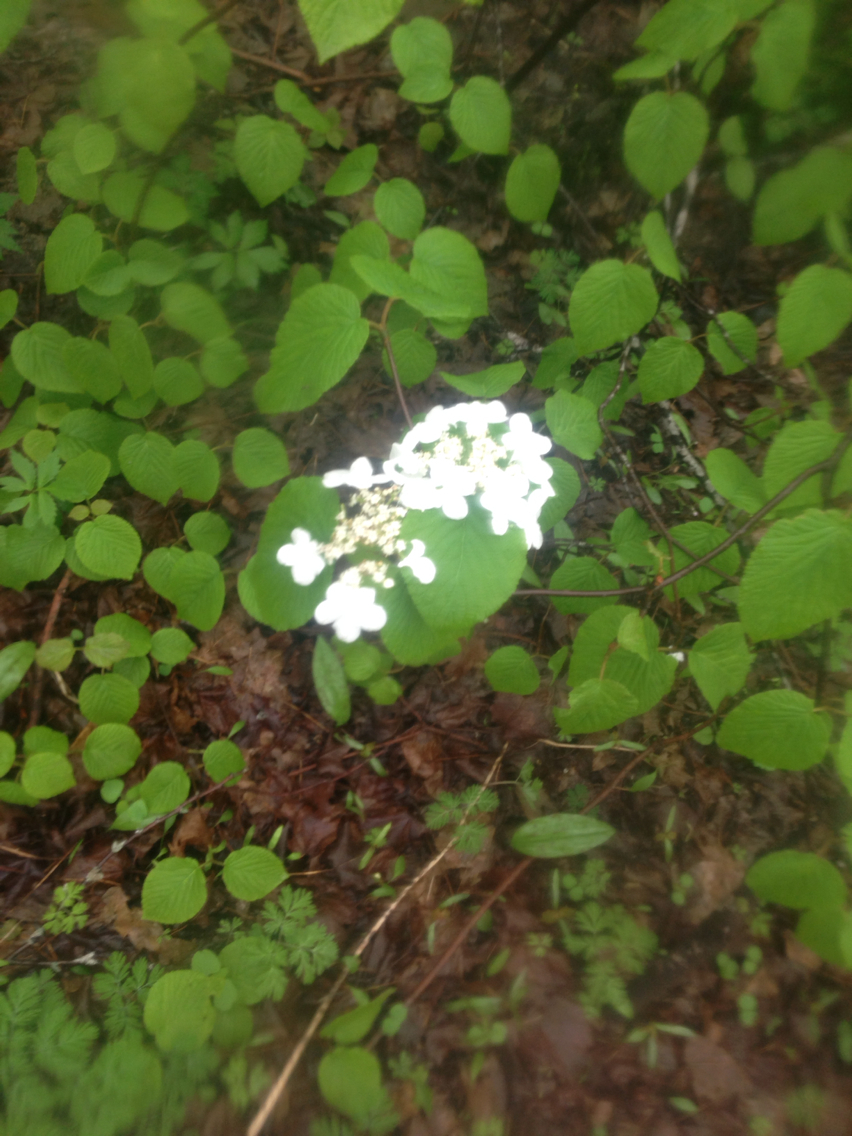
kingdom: Plantae
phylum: Tracheophyta
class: Magnoliopsida
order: Dipsacales
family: Viburnaceae
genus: Viburnum
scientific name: Viburnum lantanoides
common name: Hobblebush
